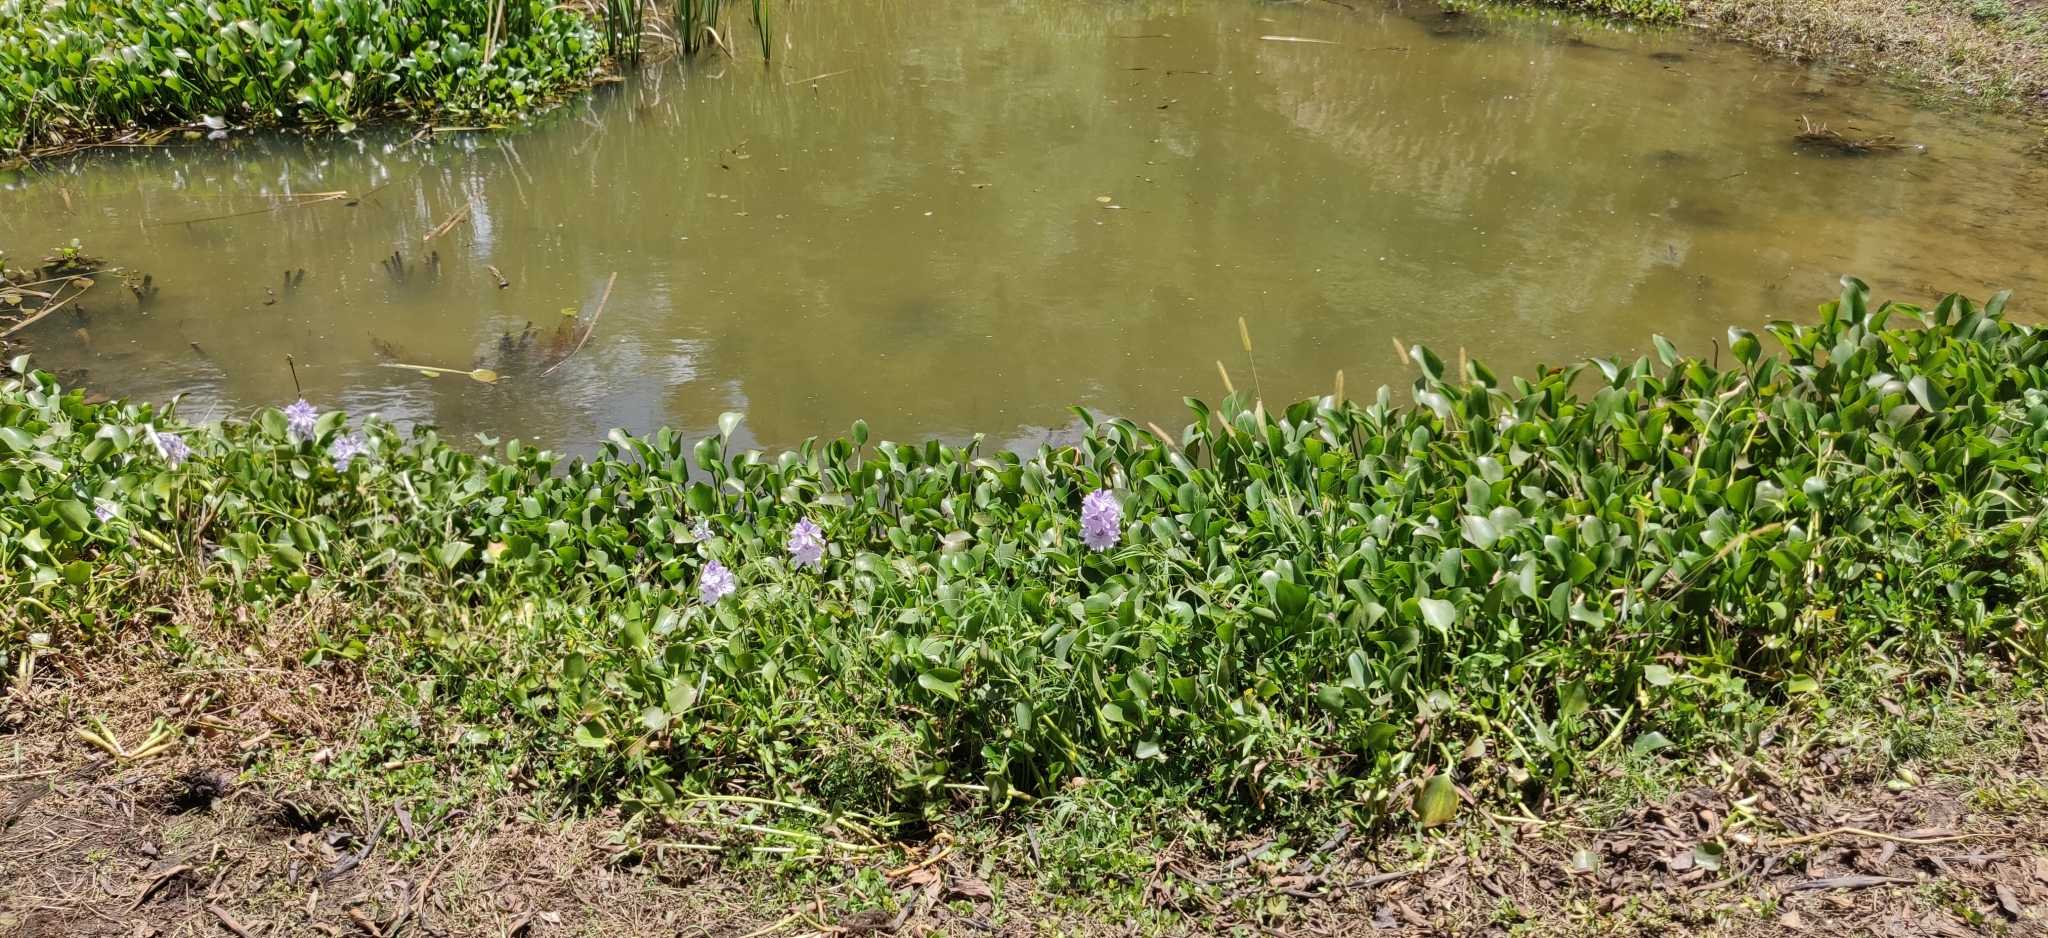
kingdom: Plantae
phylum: Tracheophyta
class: Liliopsida
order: Commelinales
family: Pontederiaceae
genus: Pontederia
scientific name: Pontederia crassipes
